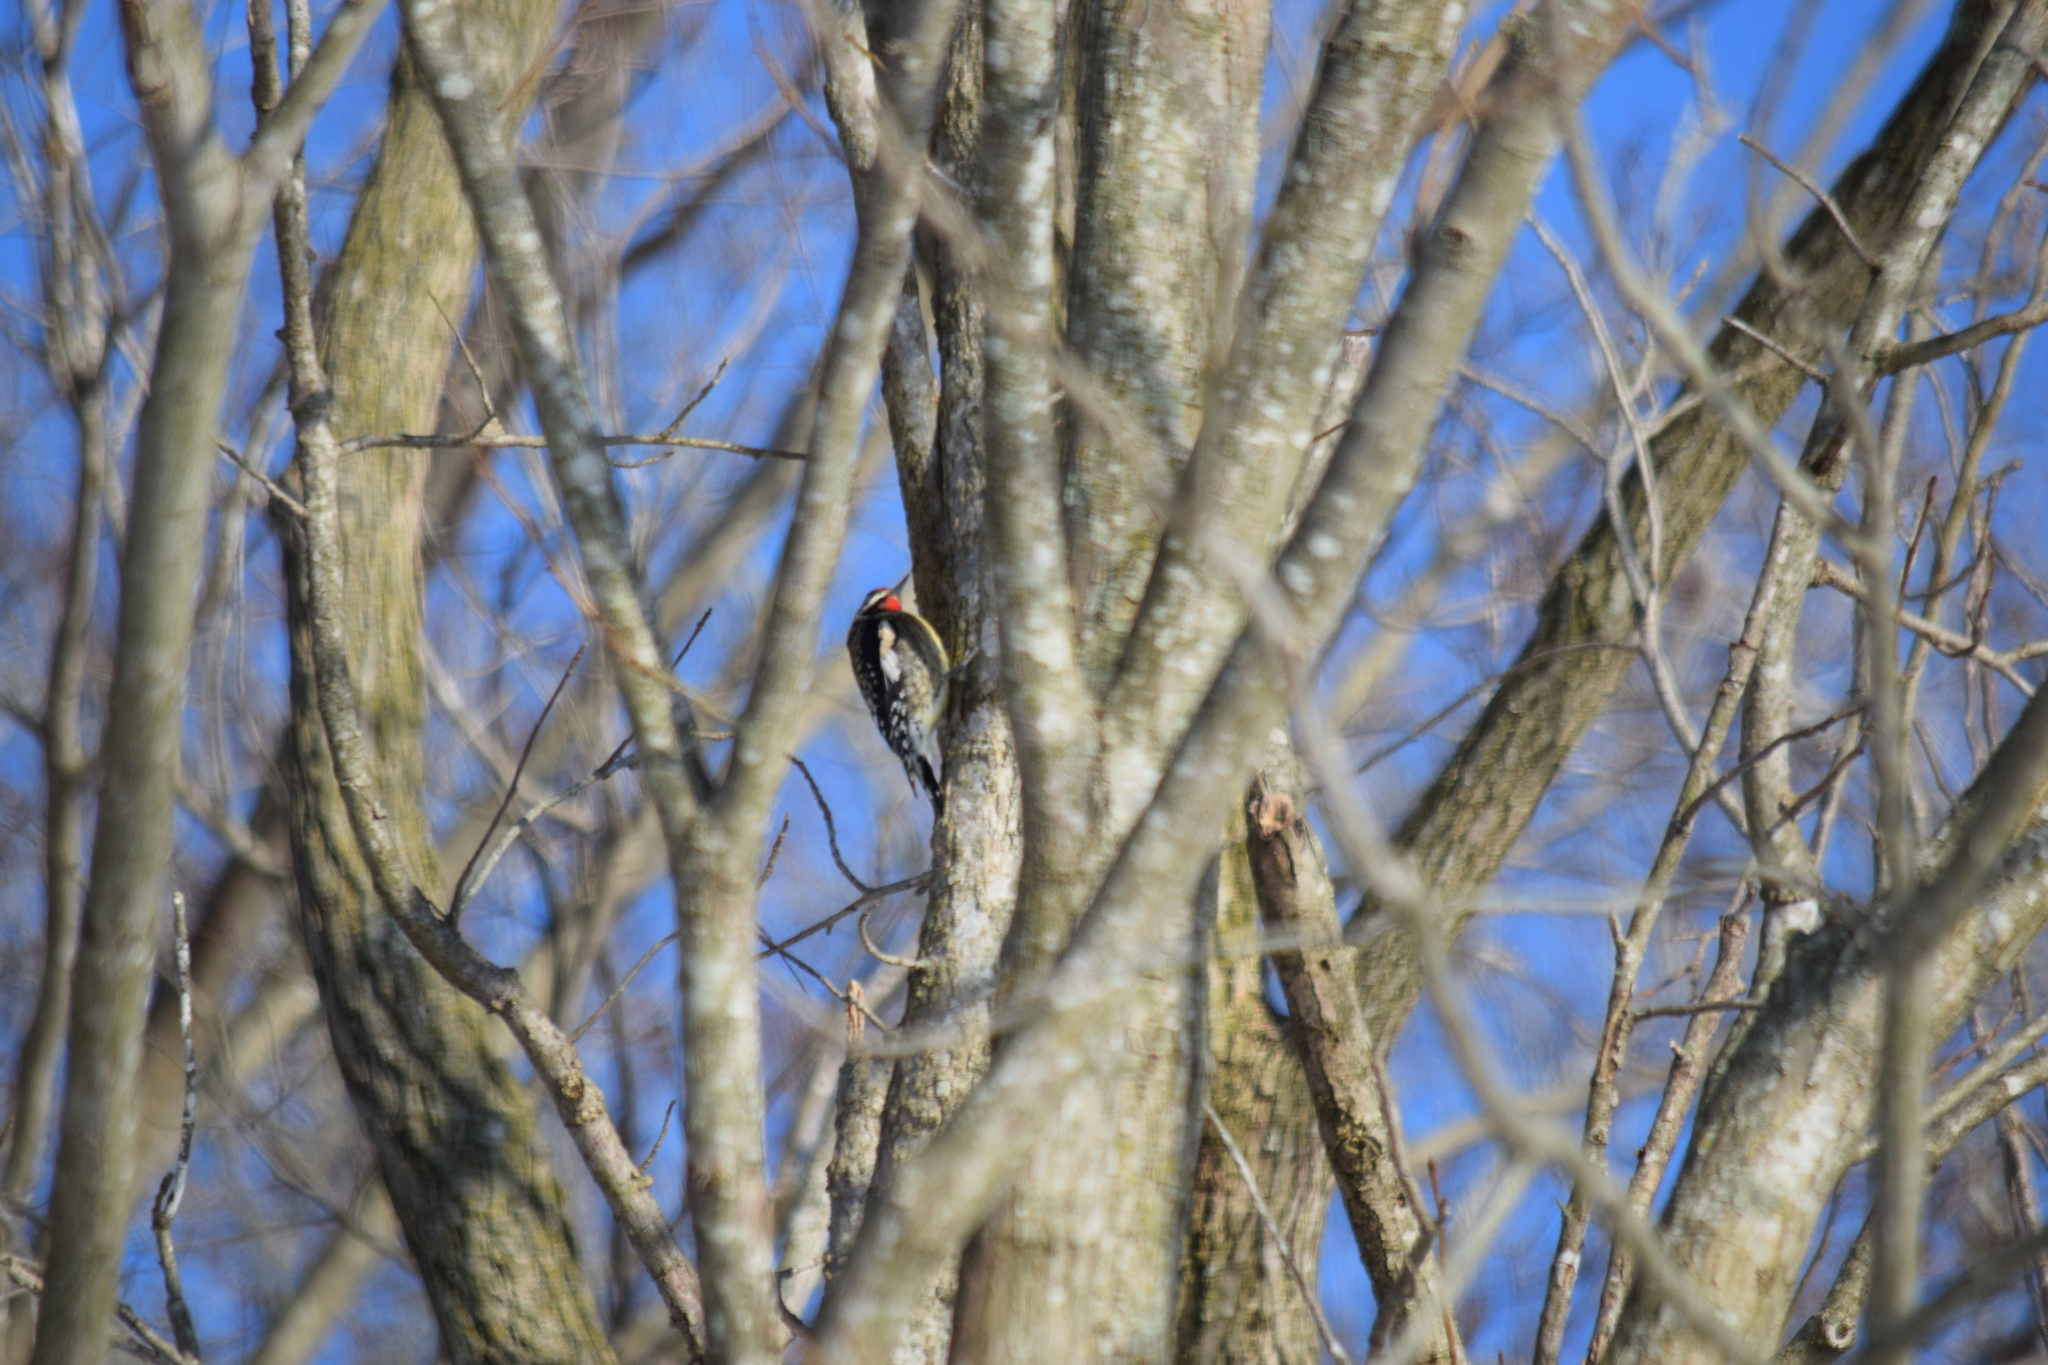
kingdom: Animalia
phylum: Chordata
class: Aves
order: Piciformes
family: Picidae
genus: Sphyrapicus
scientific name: Sphyrapicus varius
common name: Yellow-bellied sapsucker
